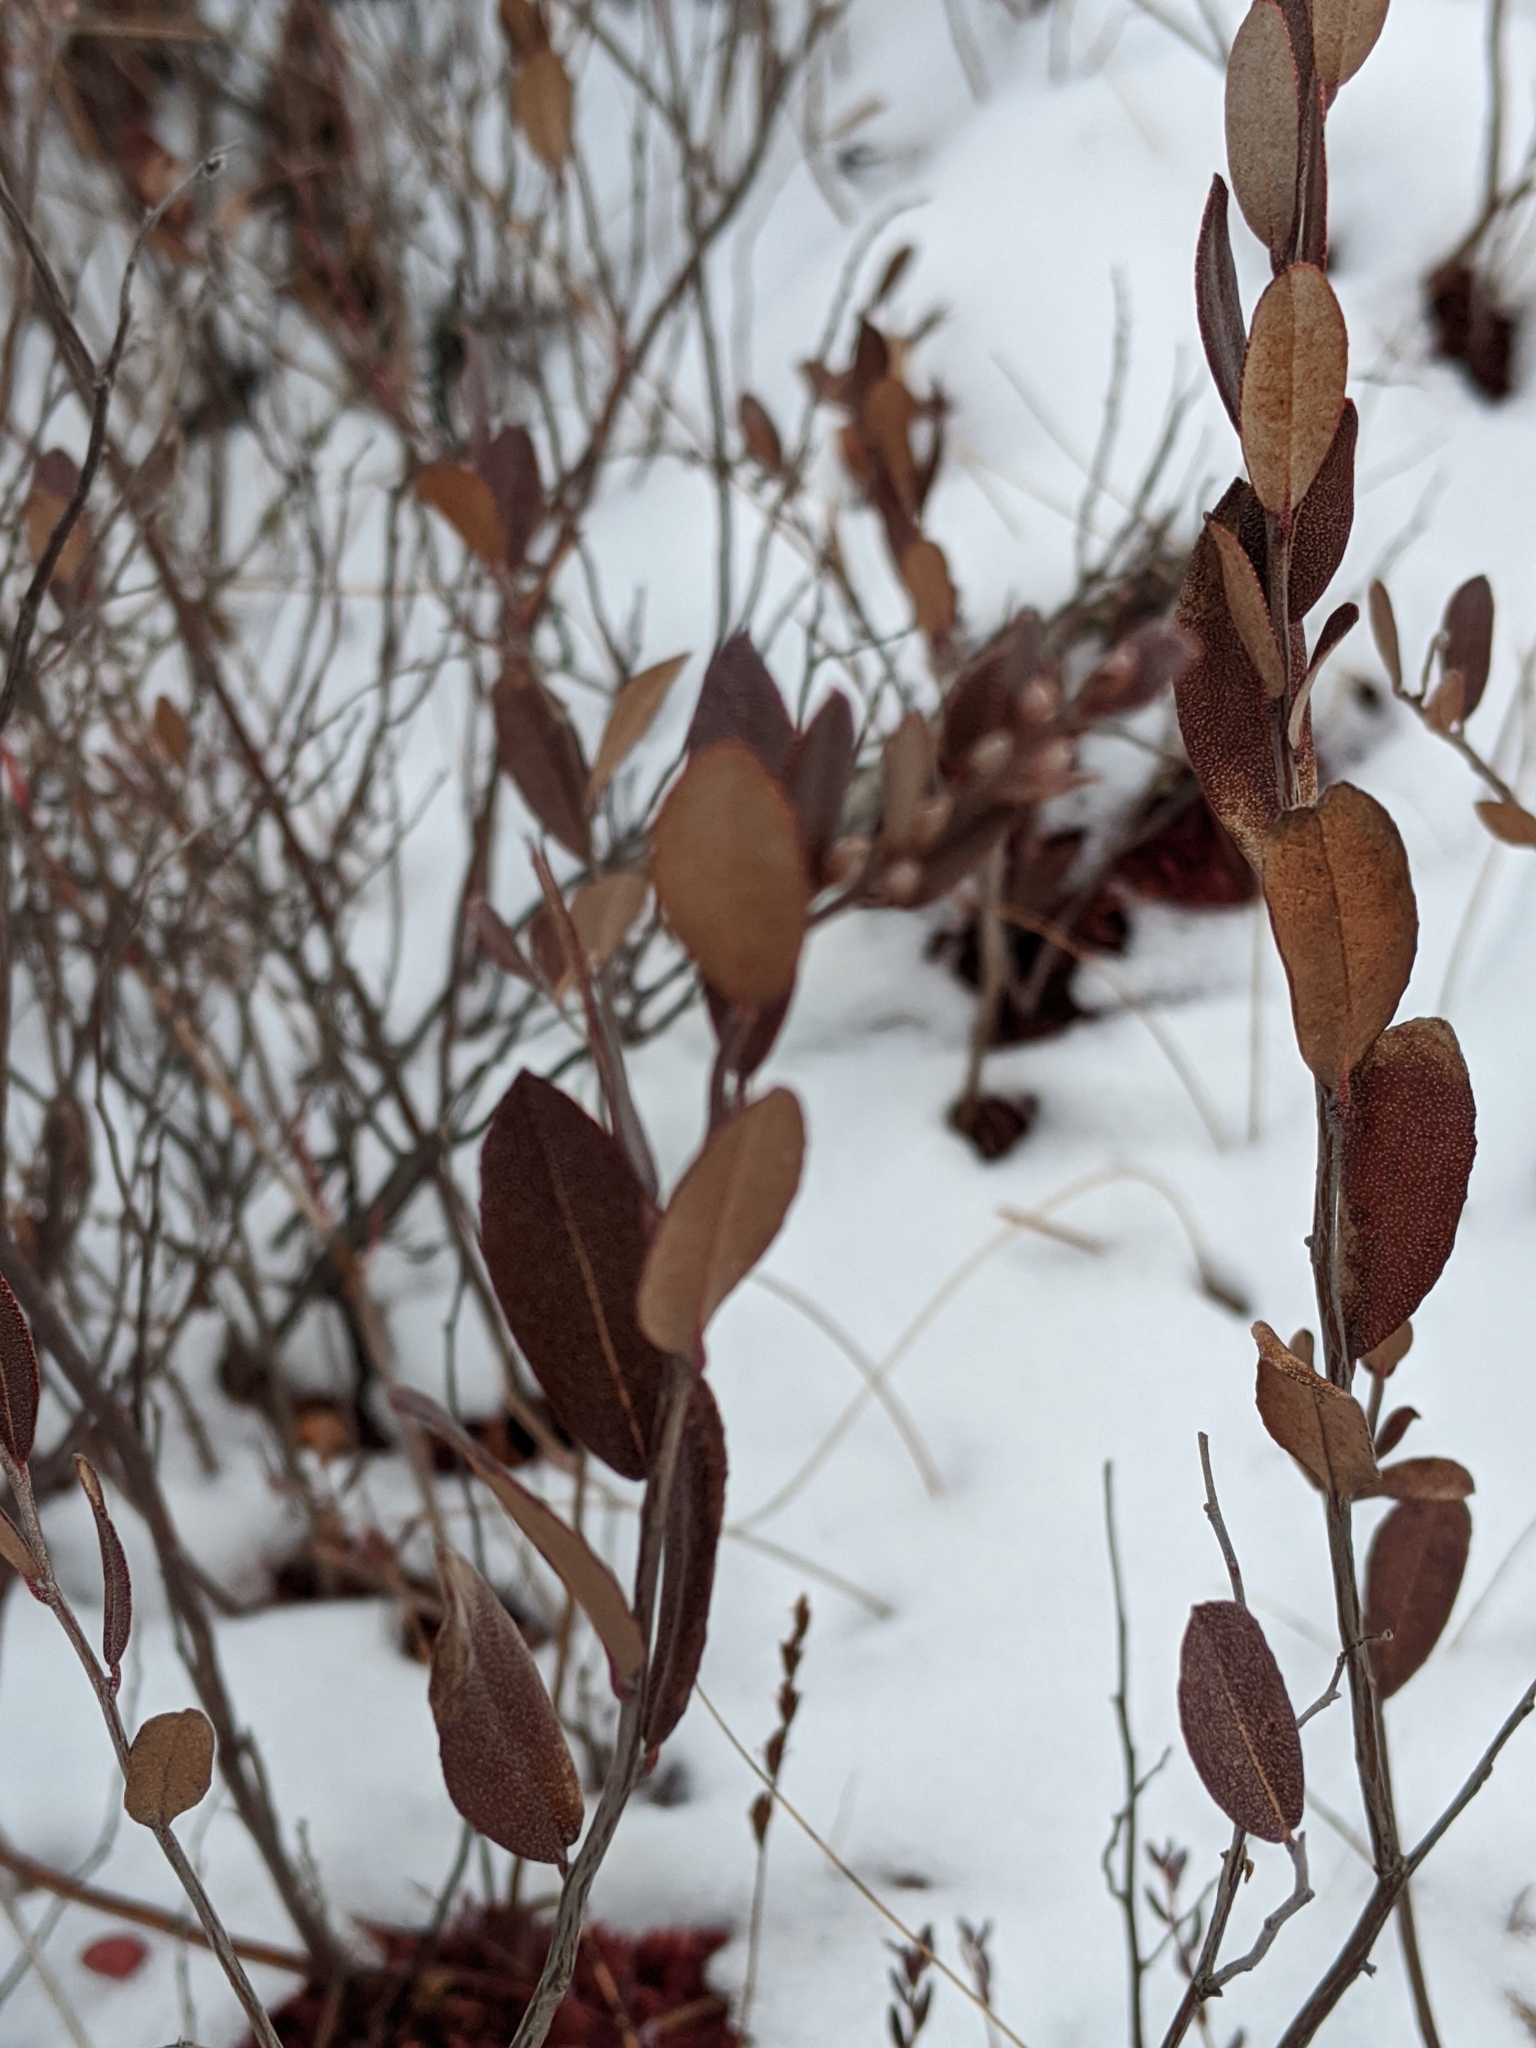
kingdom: Plantae
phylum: Tracheophyta
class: Magnoliopsida
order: Ericales
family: Ericaceae
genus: Chamaedaphne
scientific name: Chamaedaphne calyculata
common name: Leatherleaf
